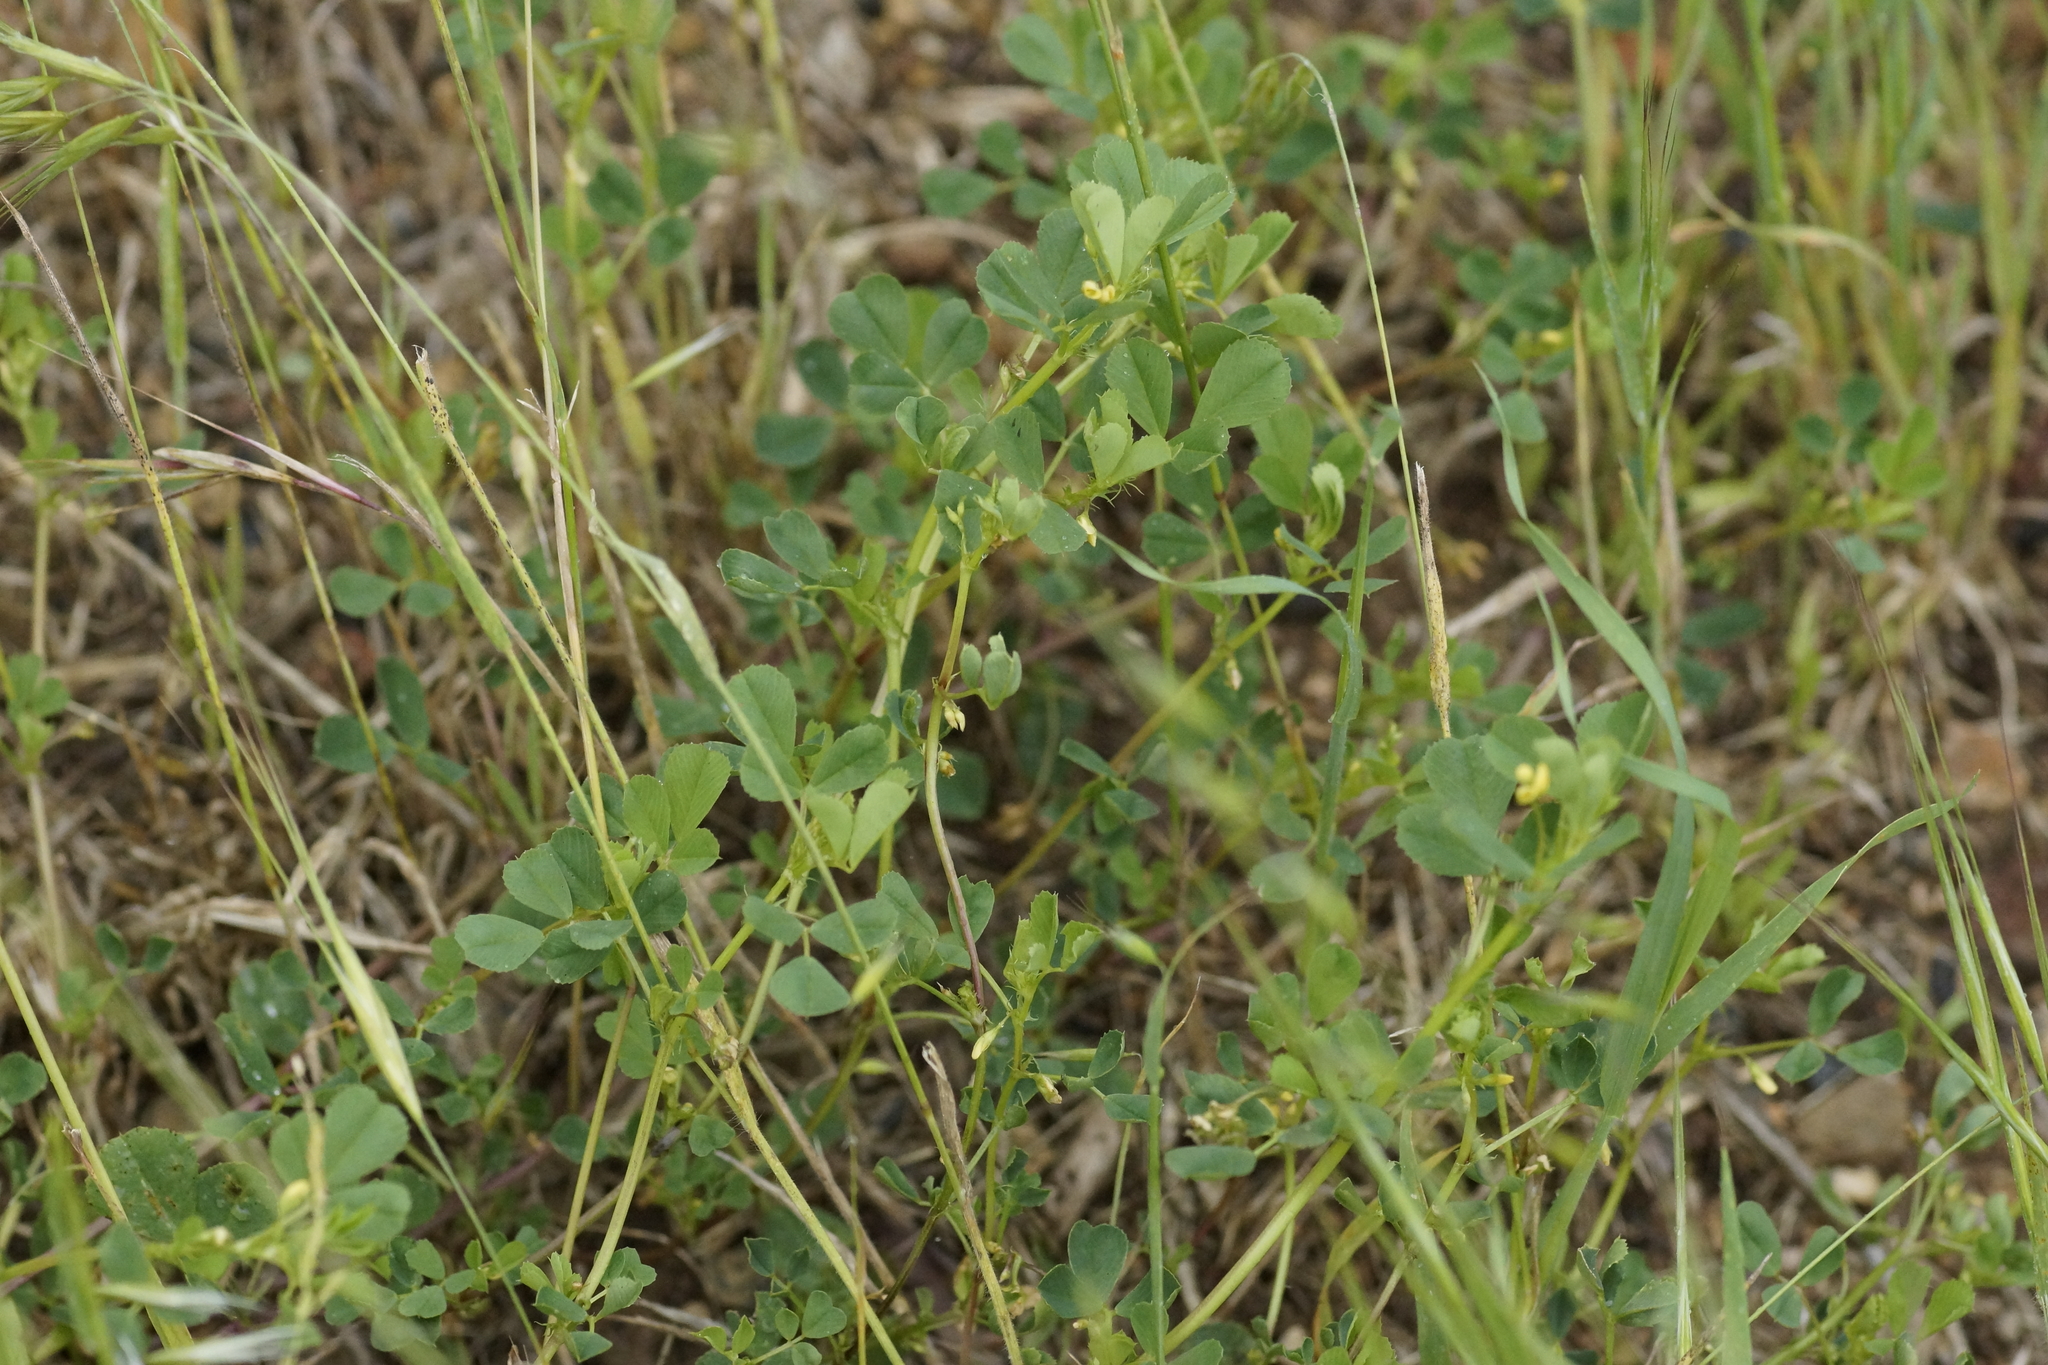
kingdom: Plantae
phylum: Tracheophyta
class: Magnoliopsida
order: Fabales
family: Fabaceae
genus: Medicago
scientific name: Medicago polymorpha
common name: Burclover
